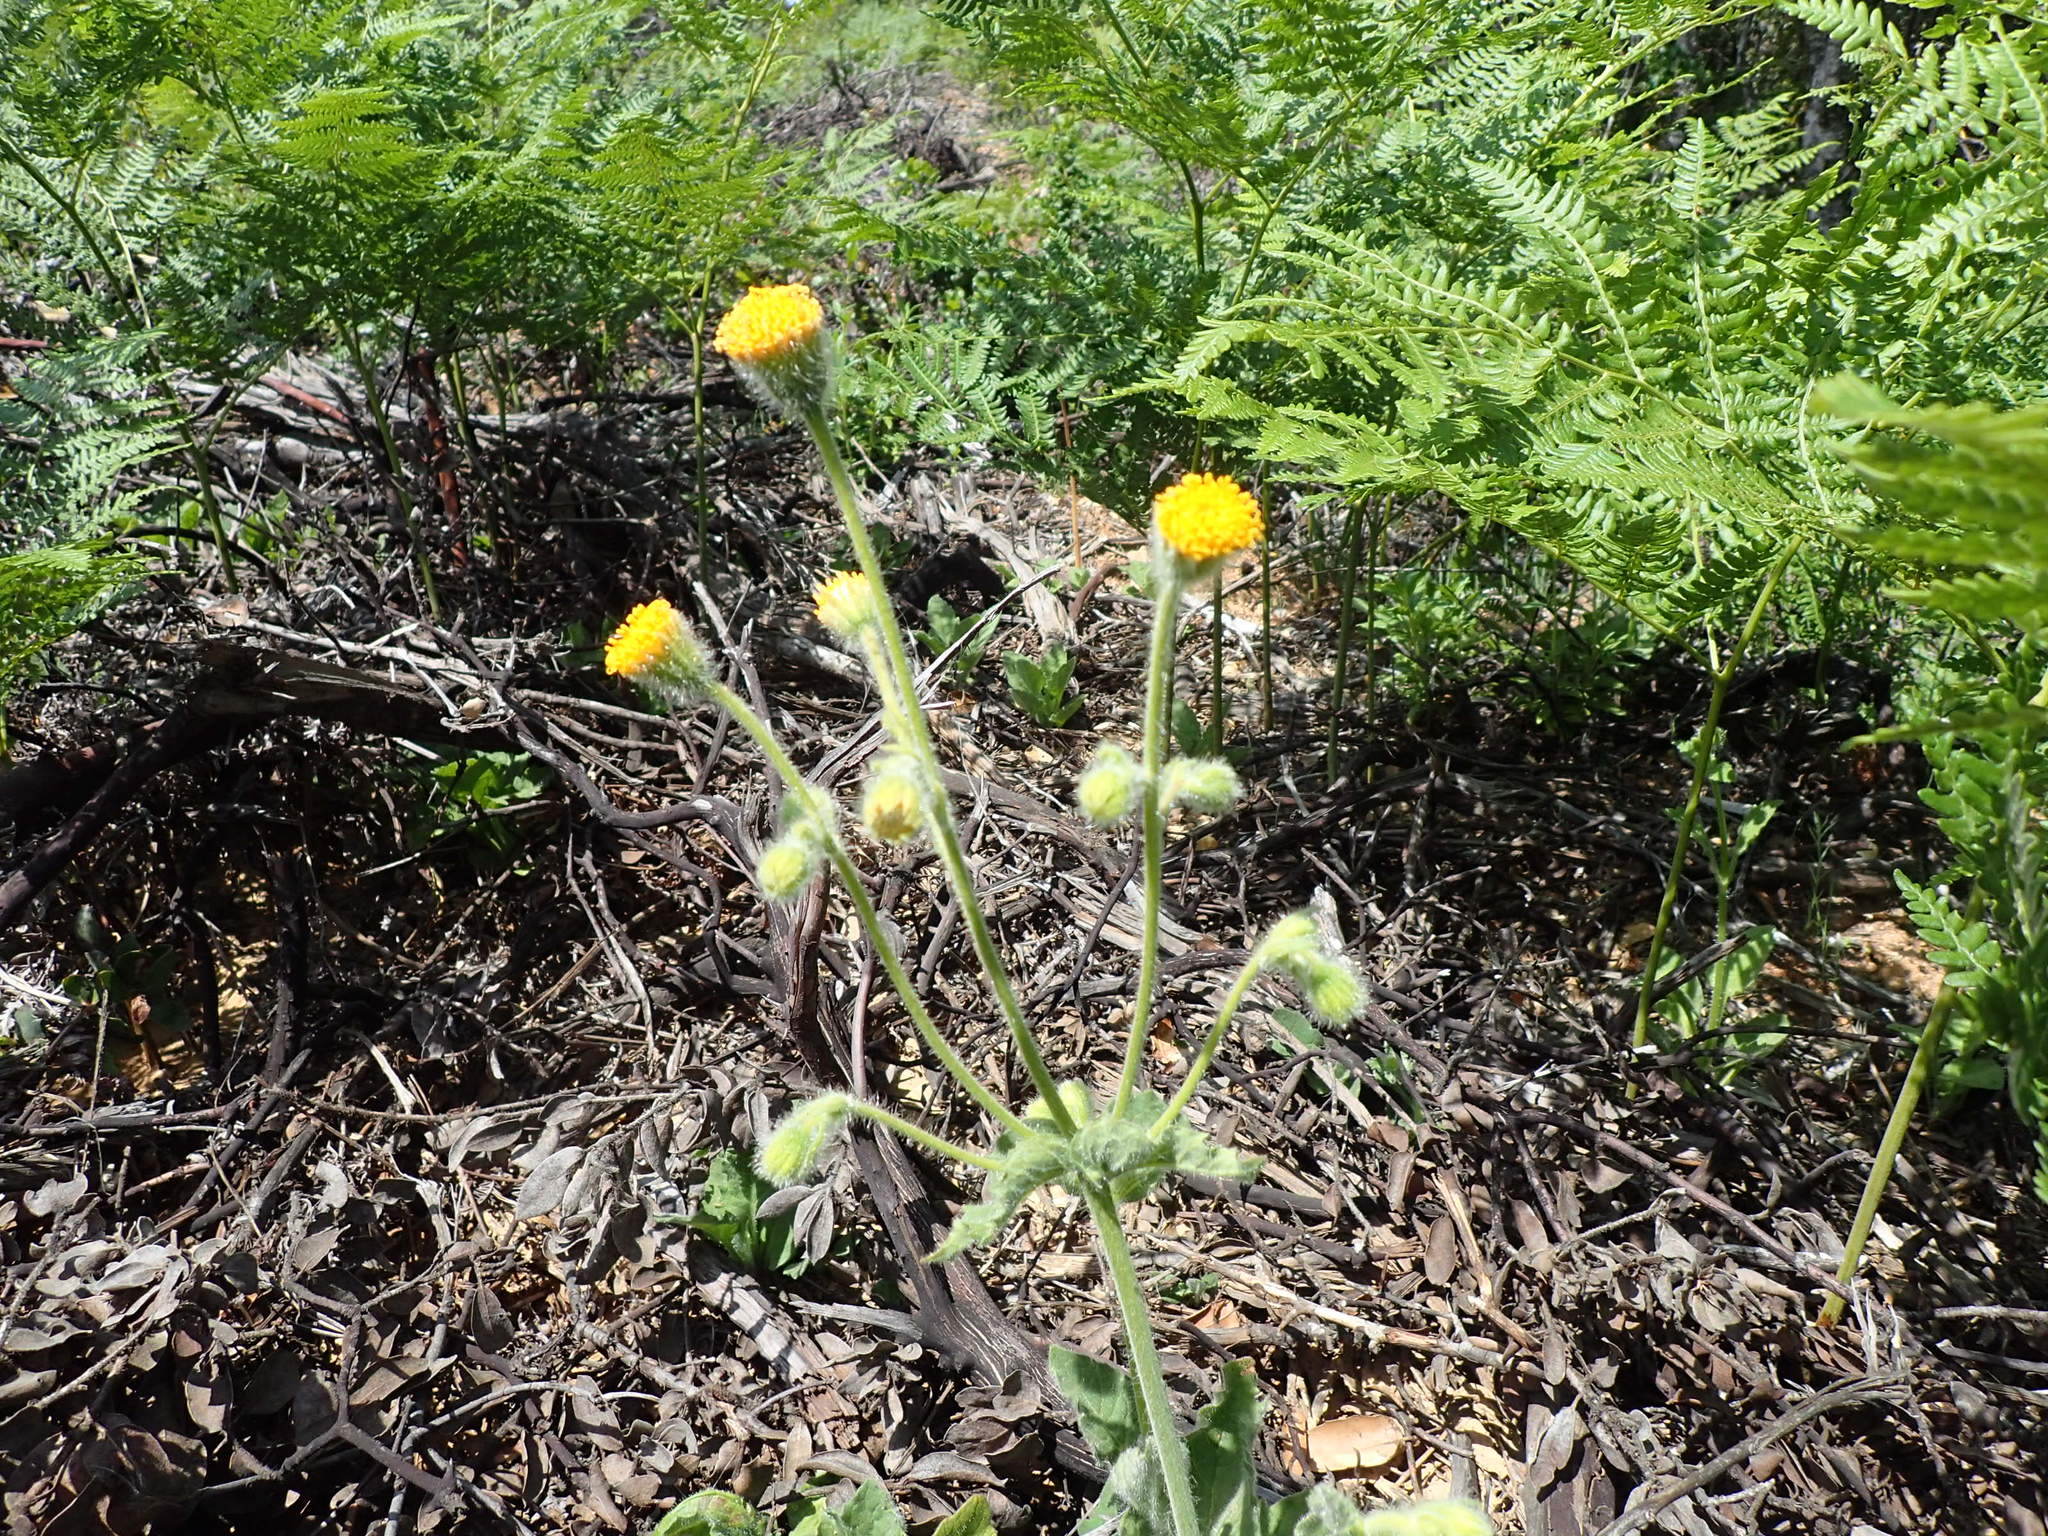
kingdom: Plantae
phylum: Tracheophyta
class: Magnoliopsida
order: Asterales
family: Asteraceae
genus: Arnica
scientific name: Arnica discoidea
